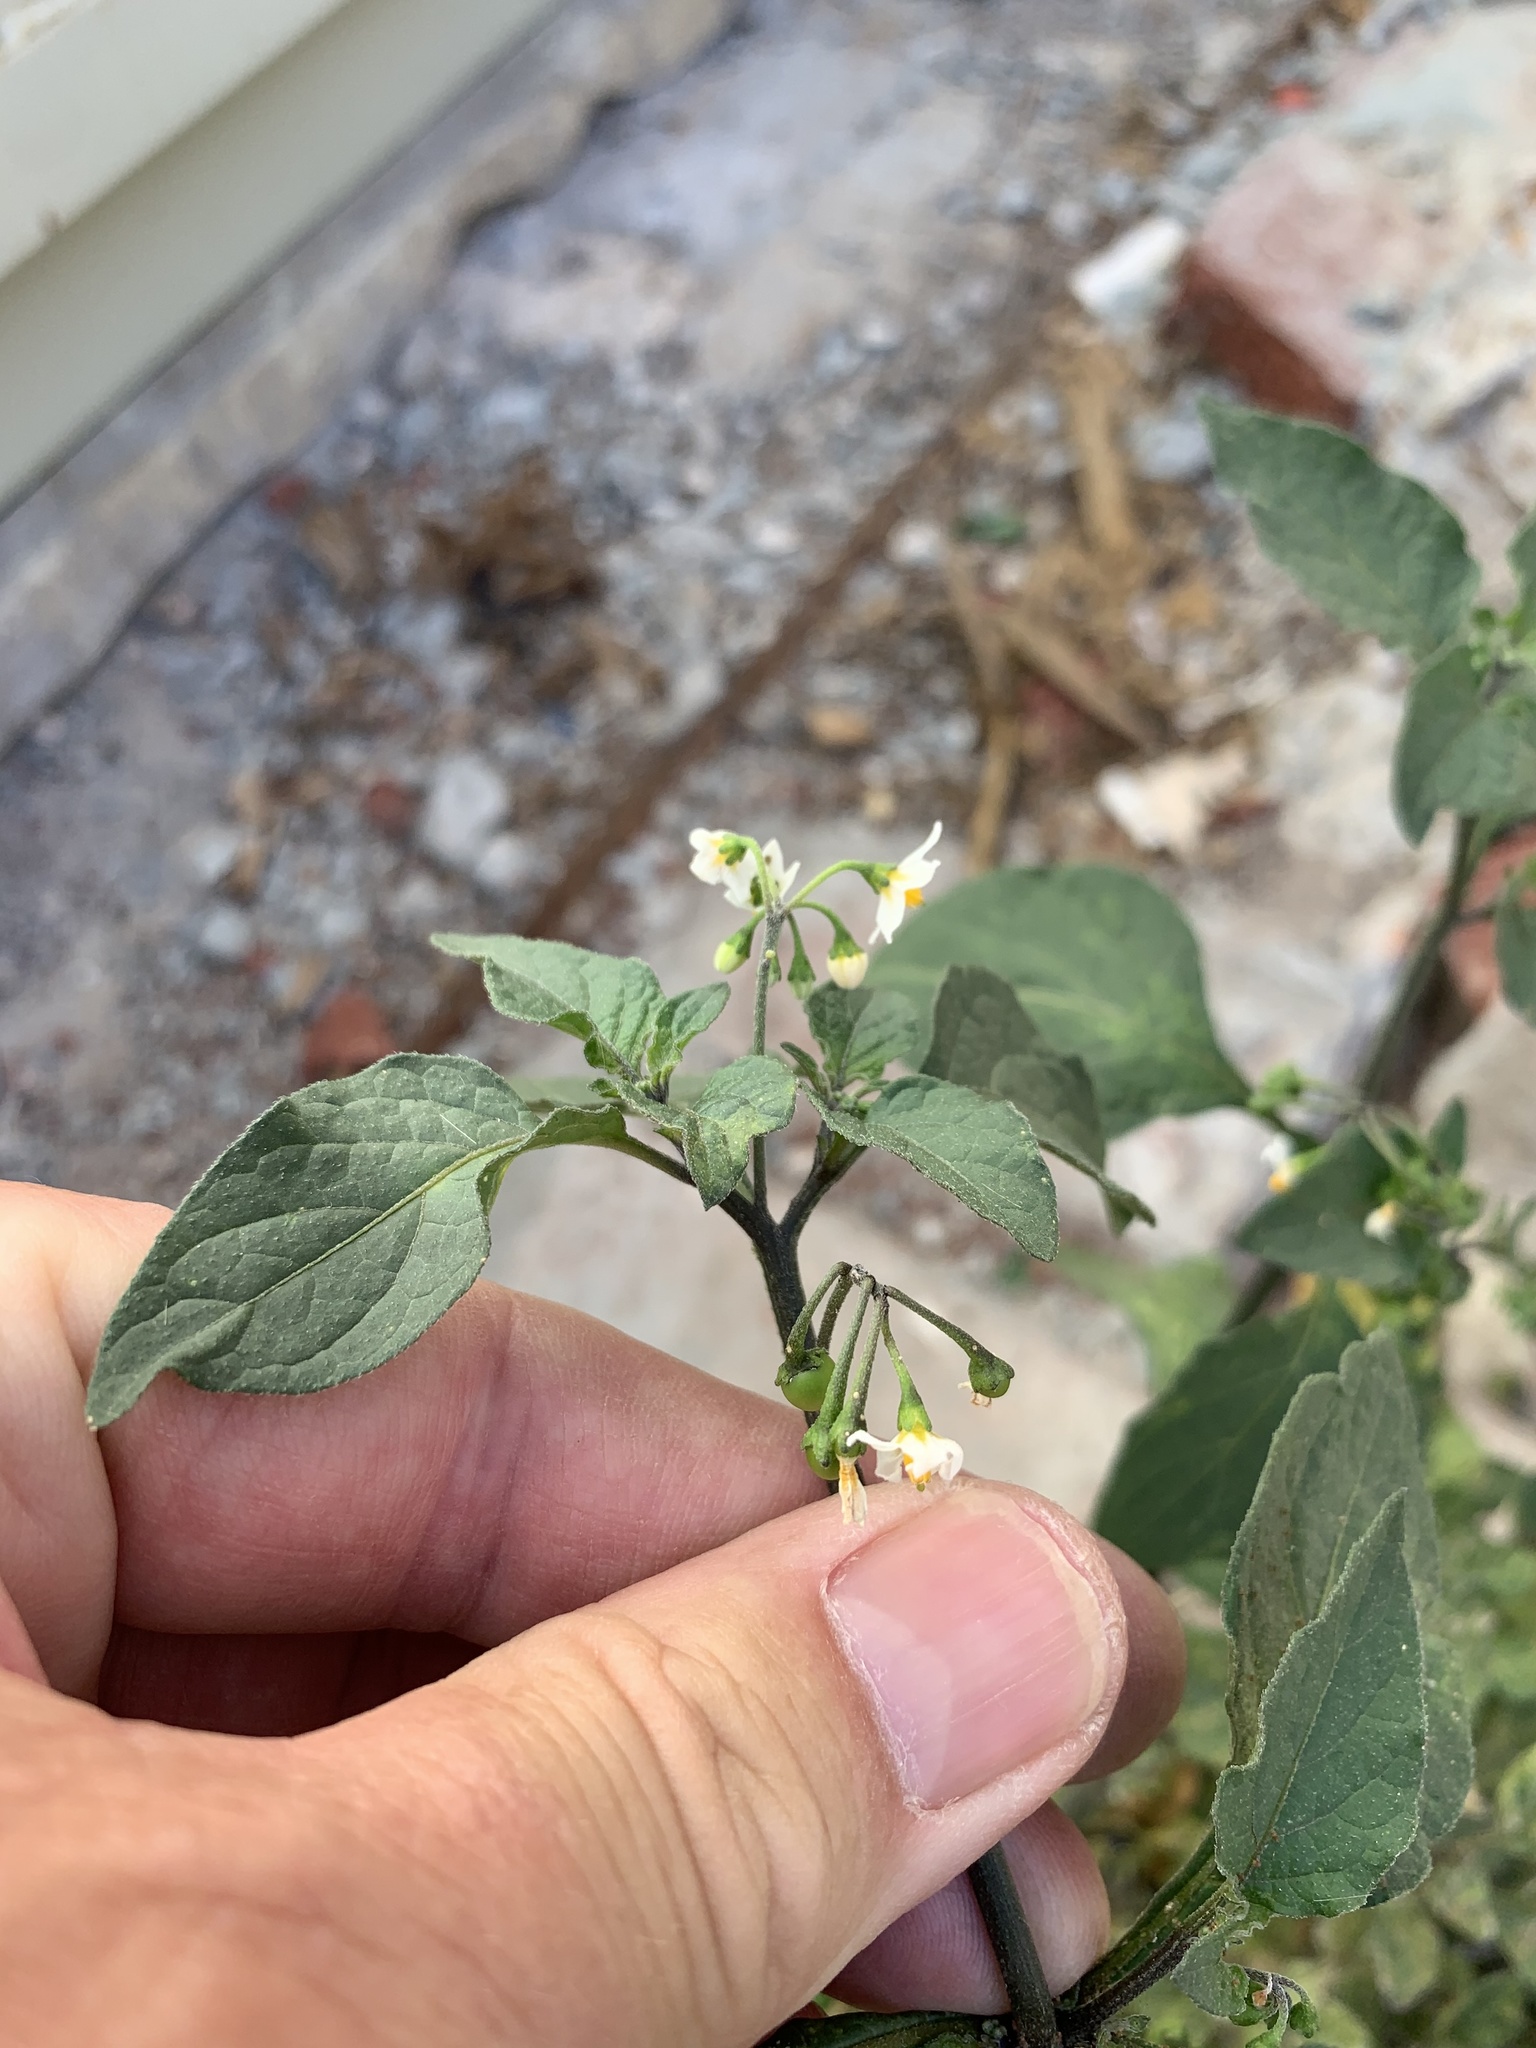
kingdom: Plantae
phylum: Tracheophyta
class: Magnoliopsida
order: Solanales
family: Solanaceae
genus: Solanum
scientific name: Solanum nigrum
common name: Black nightshade
